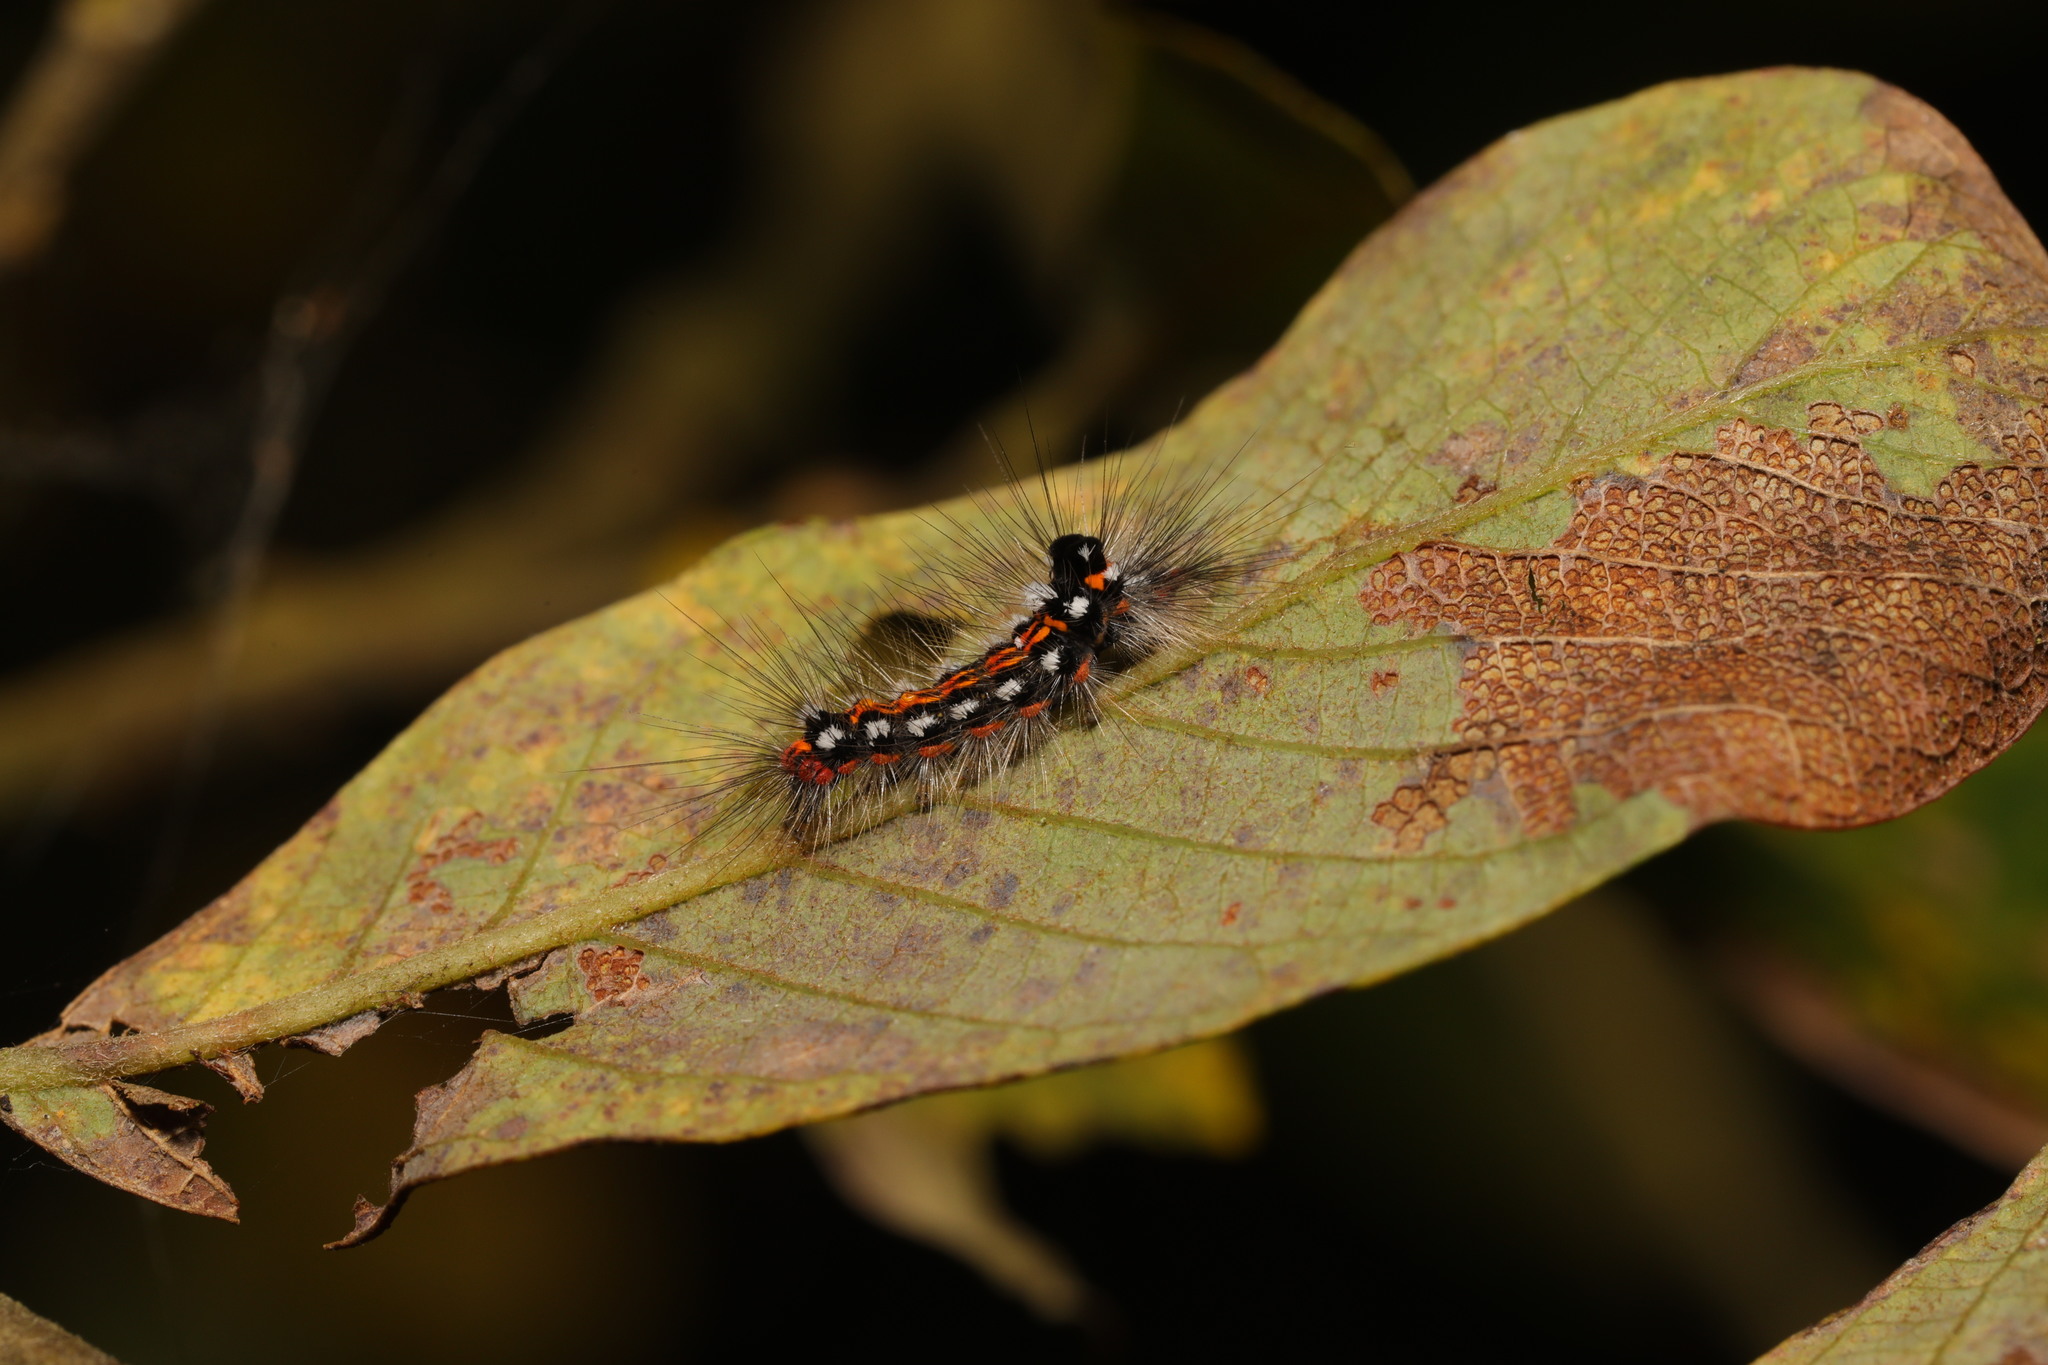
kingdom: Animalia
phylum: Arthropoda
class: Insecta
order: Lepidoptera
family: Erebidae
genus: Sphrageidus
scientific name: Sphrageidus similis
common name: Yellow-tail
